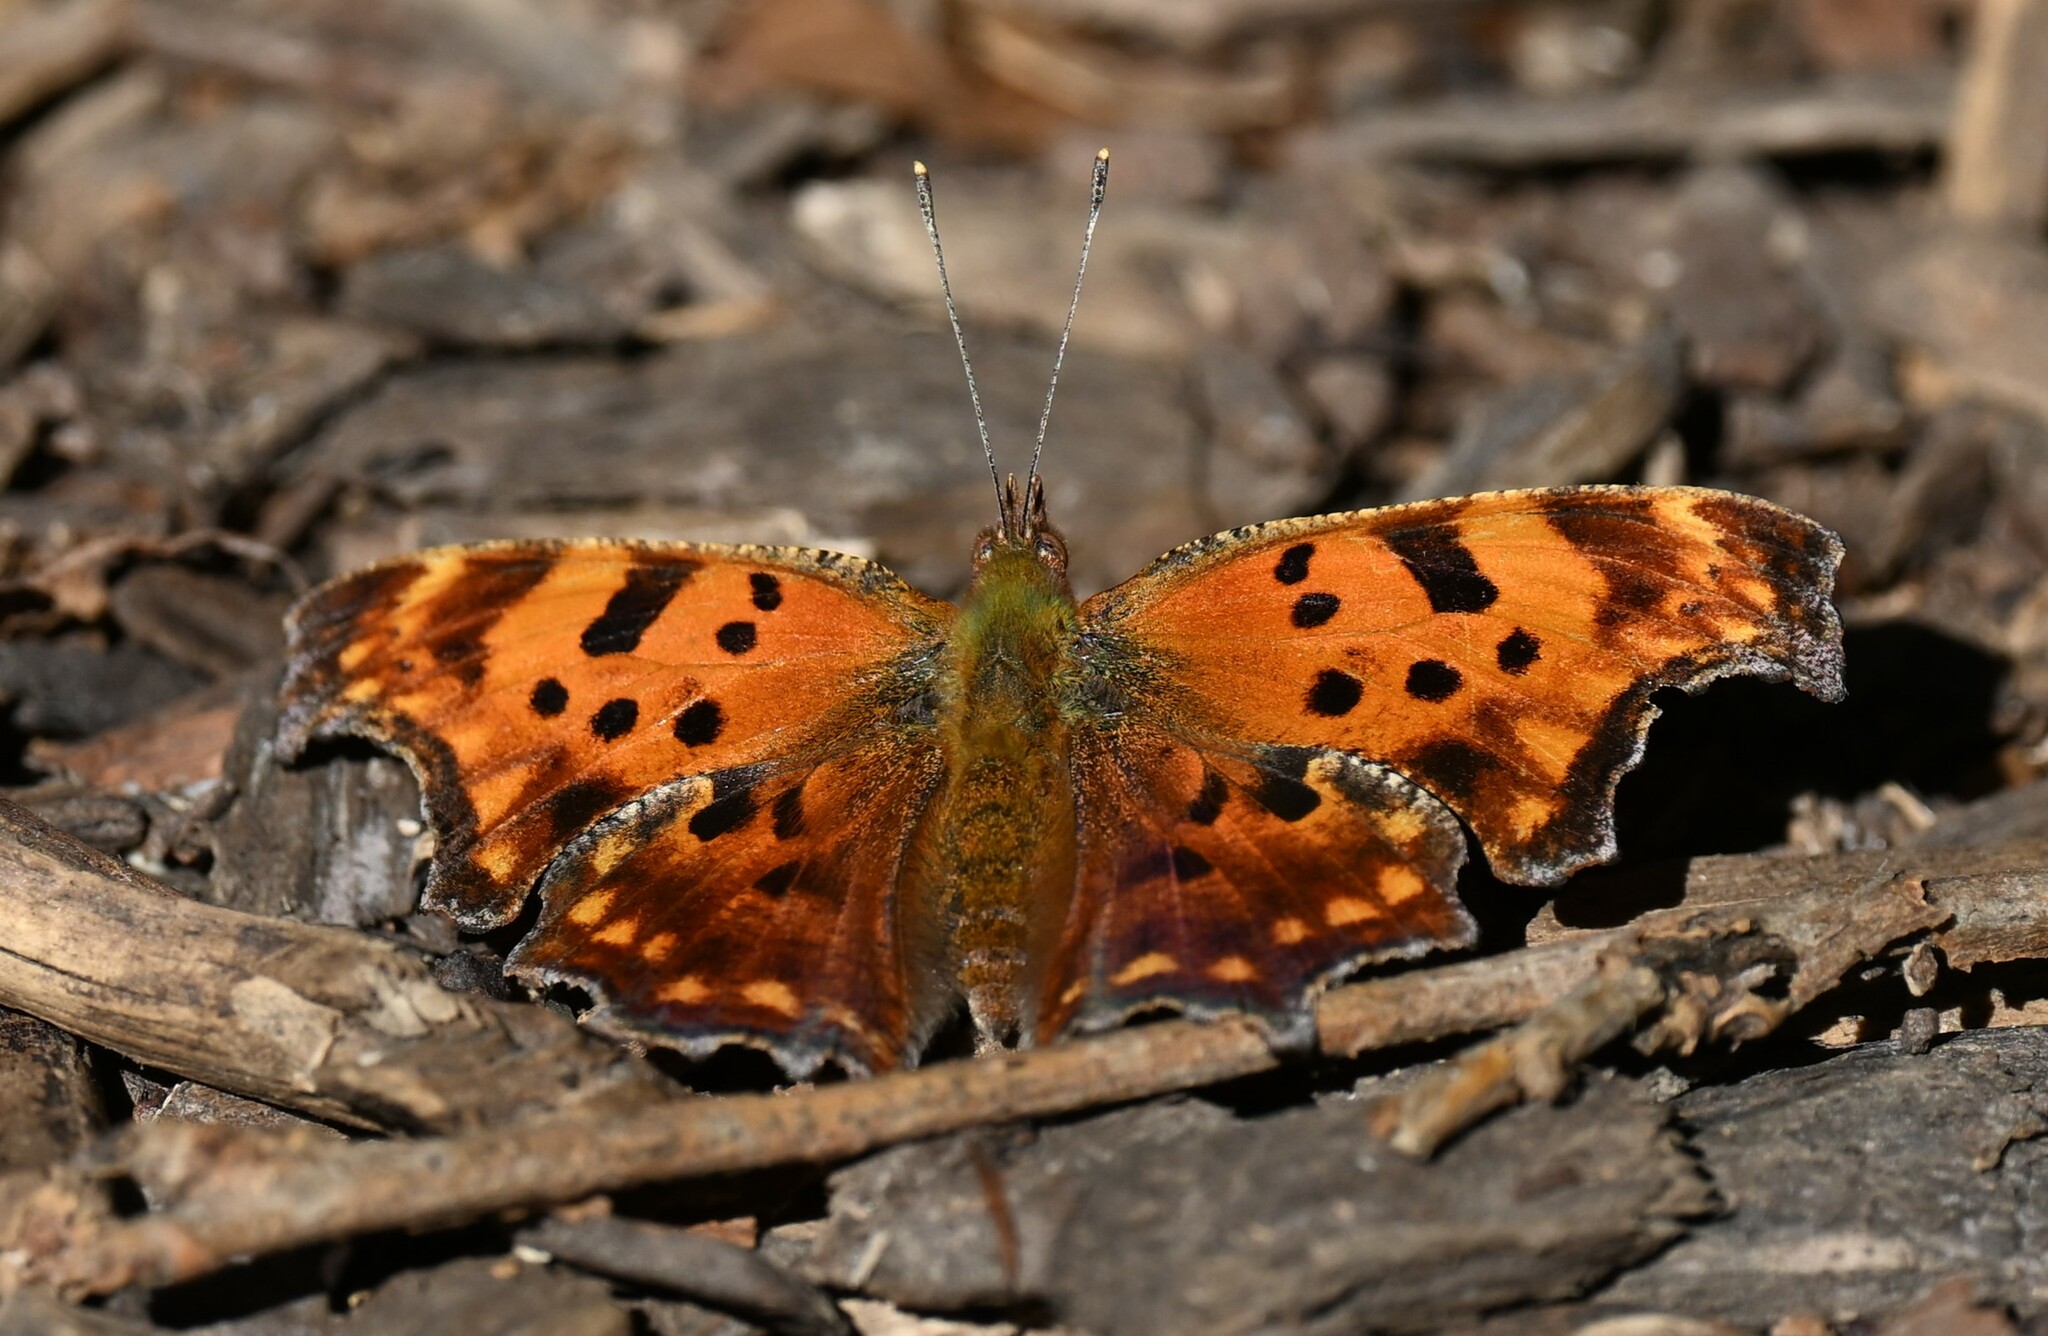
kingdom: Animalia
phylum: Arthropoda
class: Insecta
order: Lepidoptera
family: Nymphalidae
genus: Polygonia
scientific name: Polygonia comma
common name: Eastern comma
